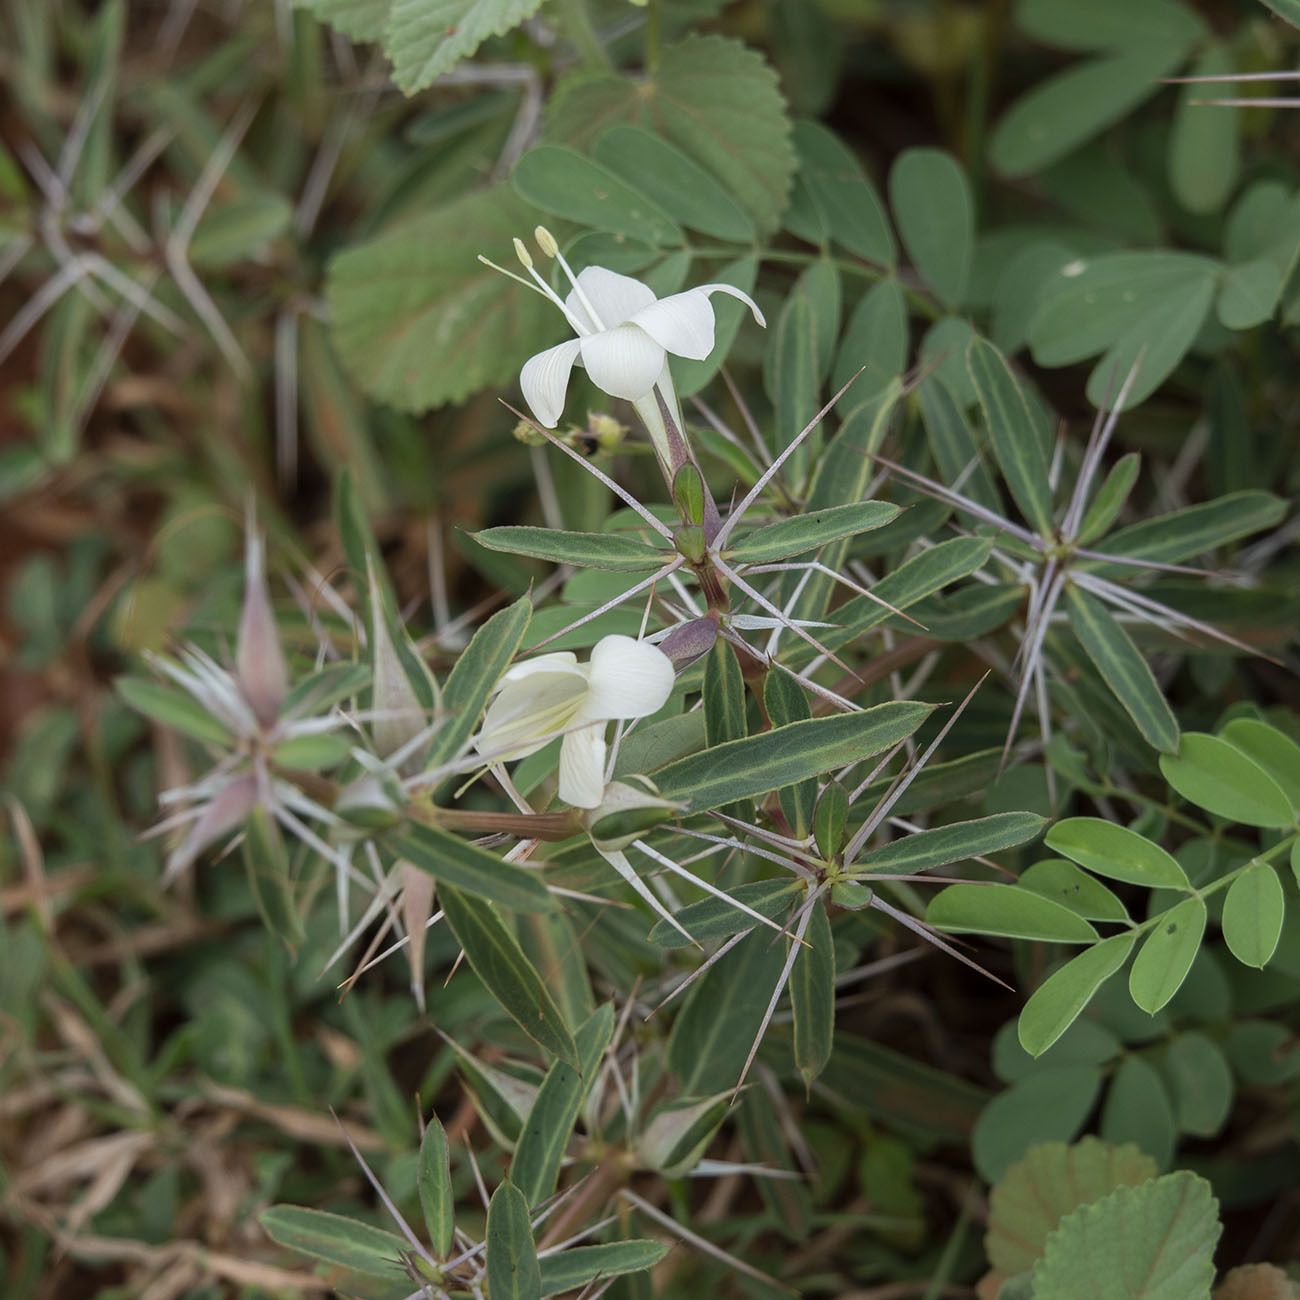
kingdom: Plantae
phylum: Tracheophyta
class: Magnoliopsida
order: Lamiales
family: Acanthaceae
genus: Barleria
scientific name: Barleria cuspidata
